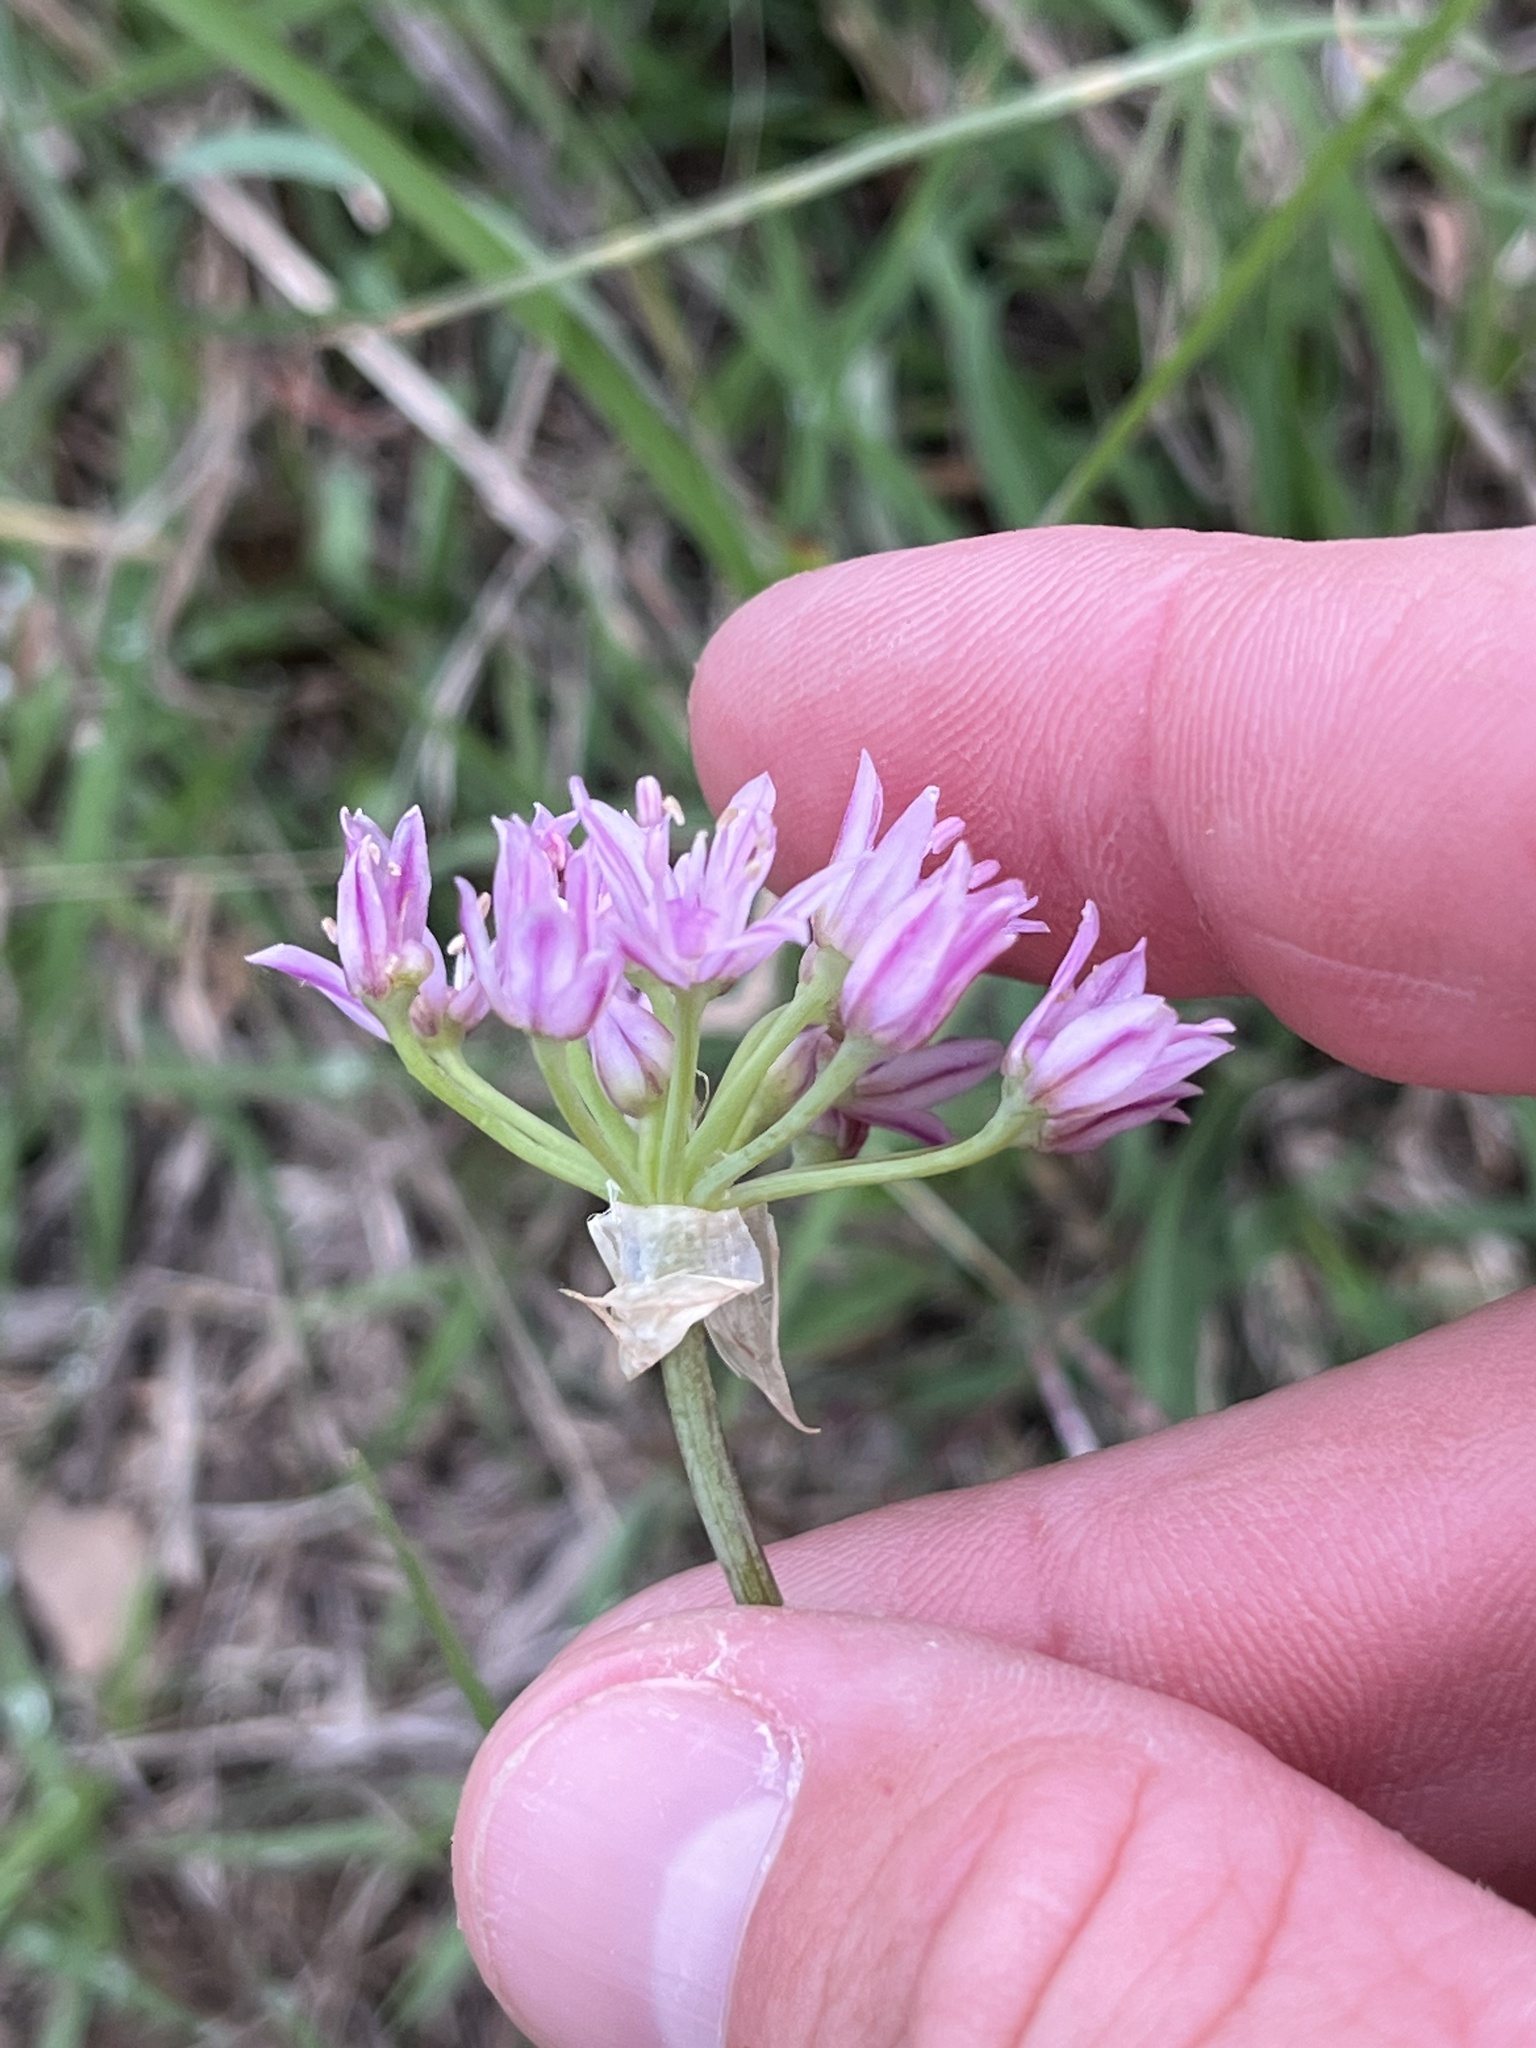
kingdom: Plantae
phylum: Tracheophyta
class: Liliopsida
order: Asparagales
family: Amaryllidaceae
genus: Allium
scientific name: Allium drummondii
